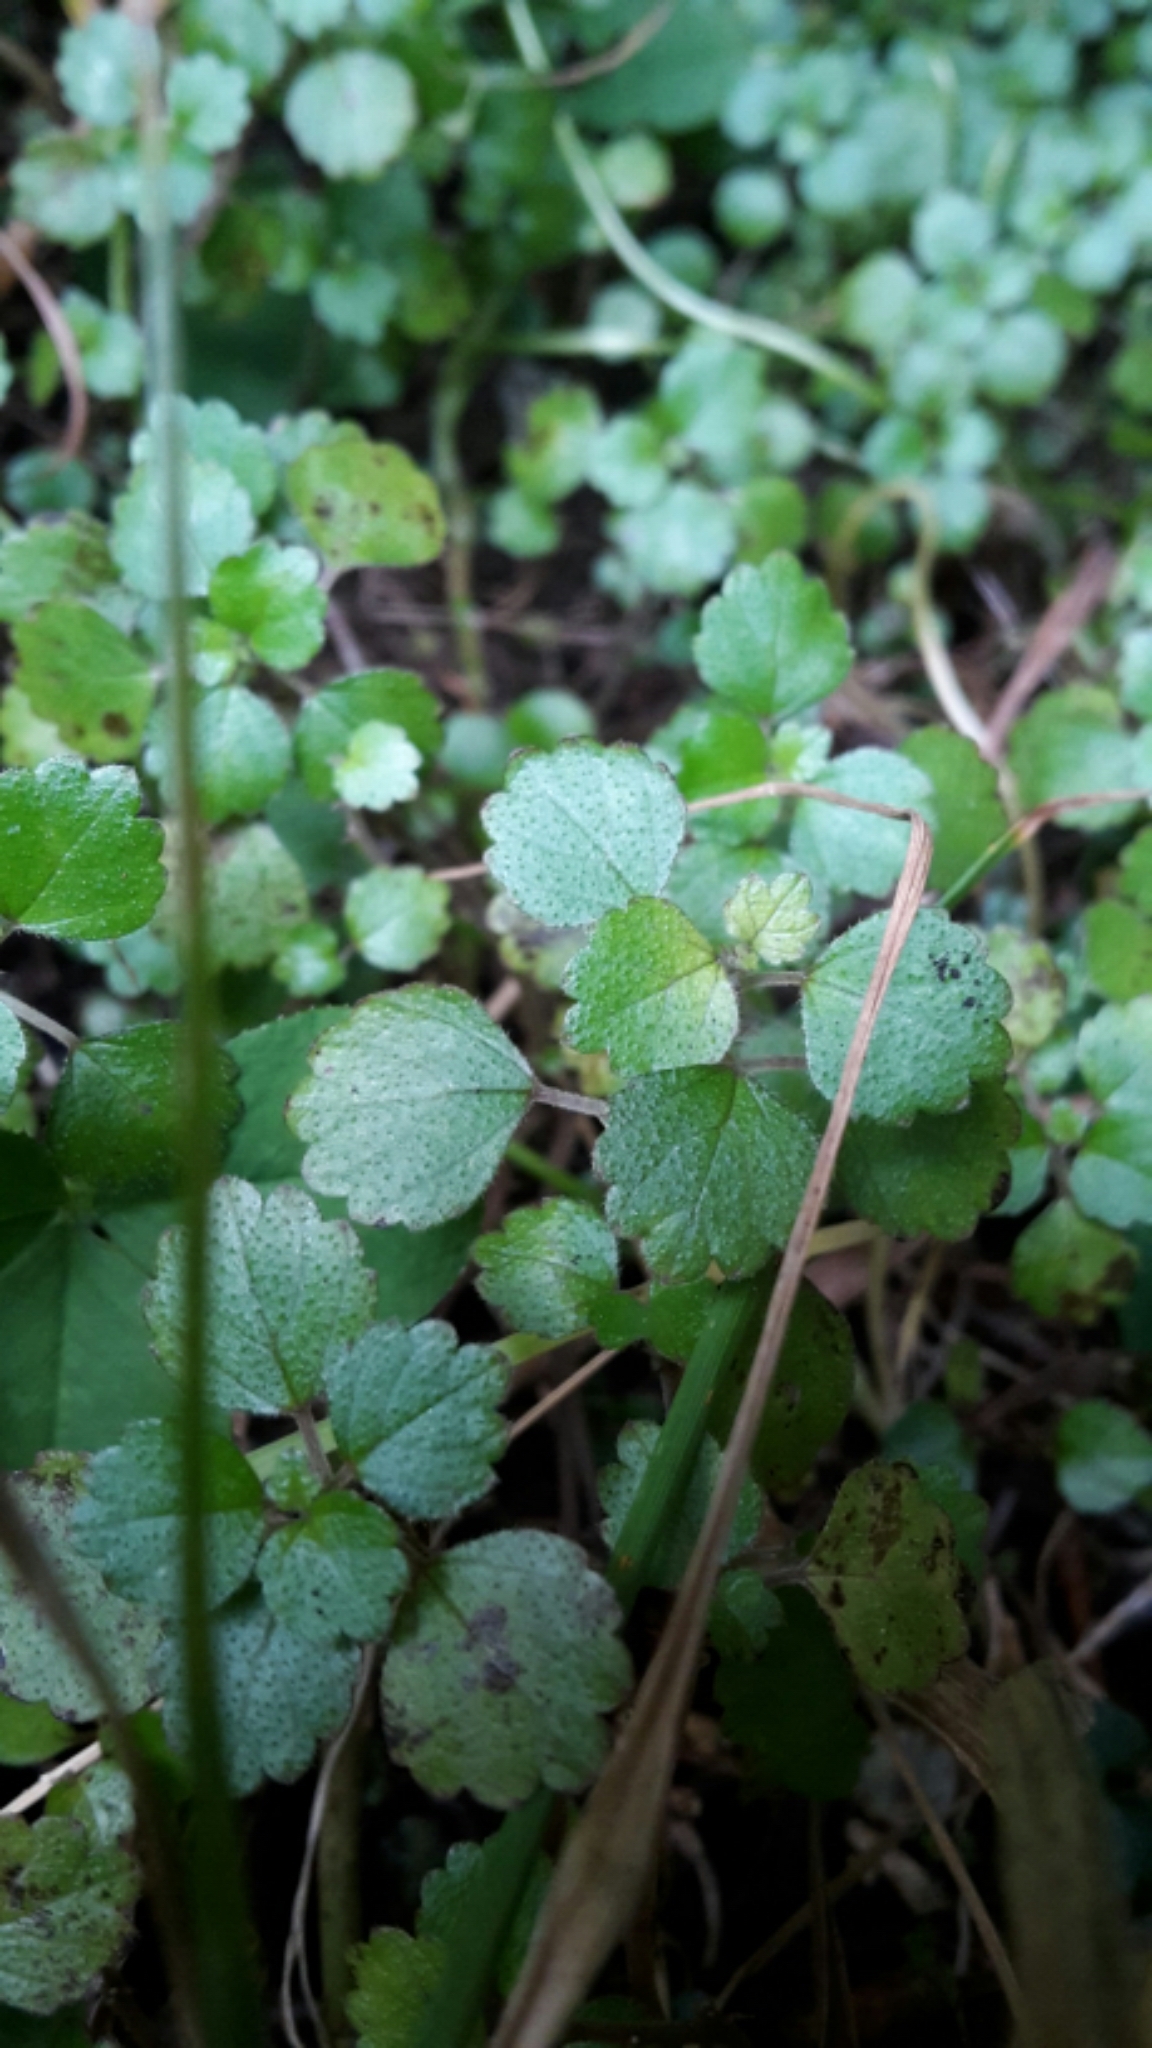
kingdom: Plantae
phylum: Tracheophyta
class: Magnoliopsida
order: Rosales
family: Urticaceae
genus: Australina
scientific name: Australina pusilla
